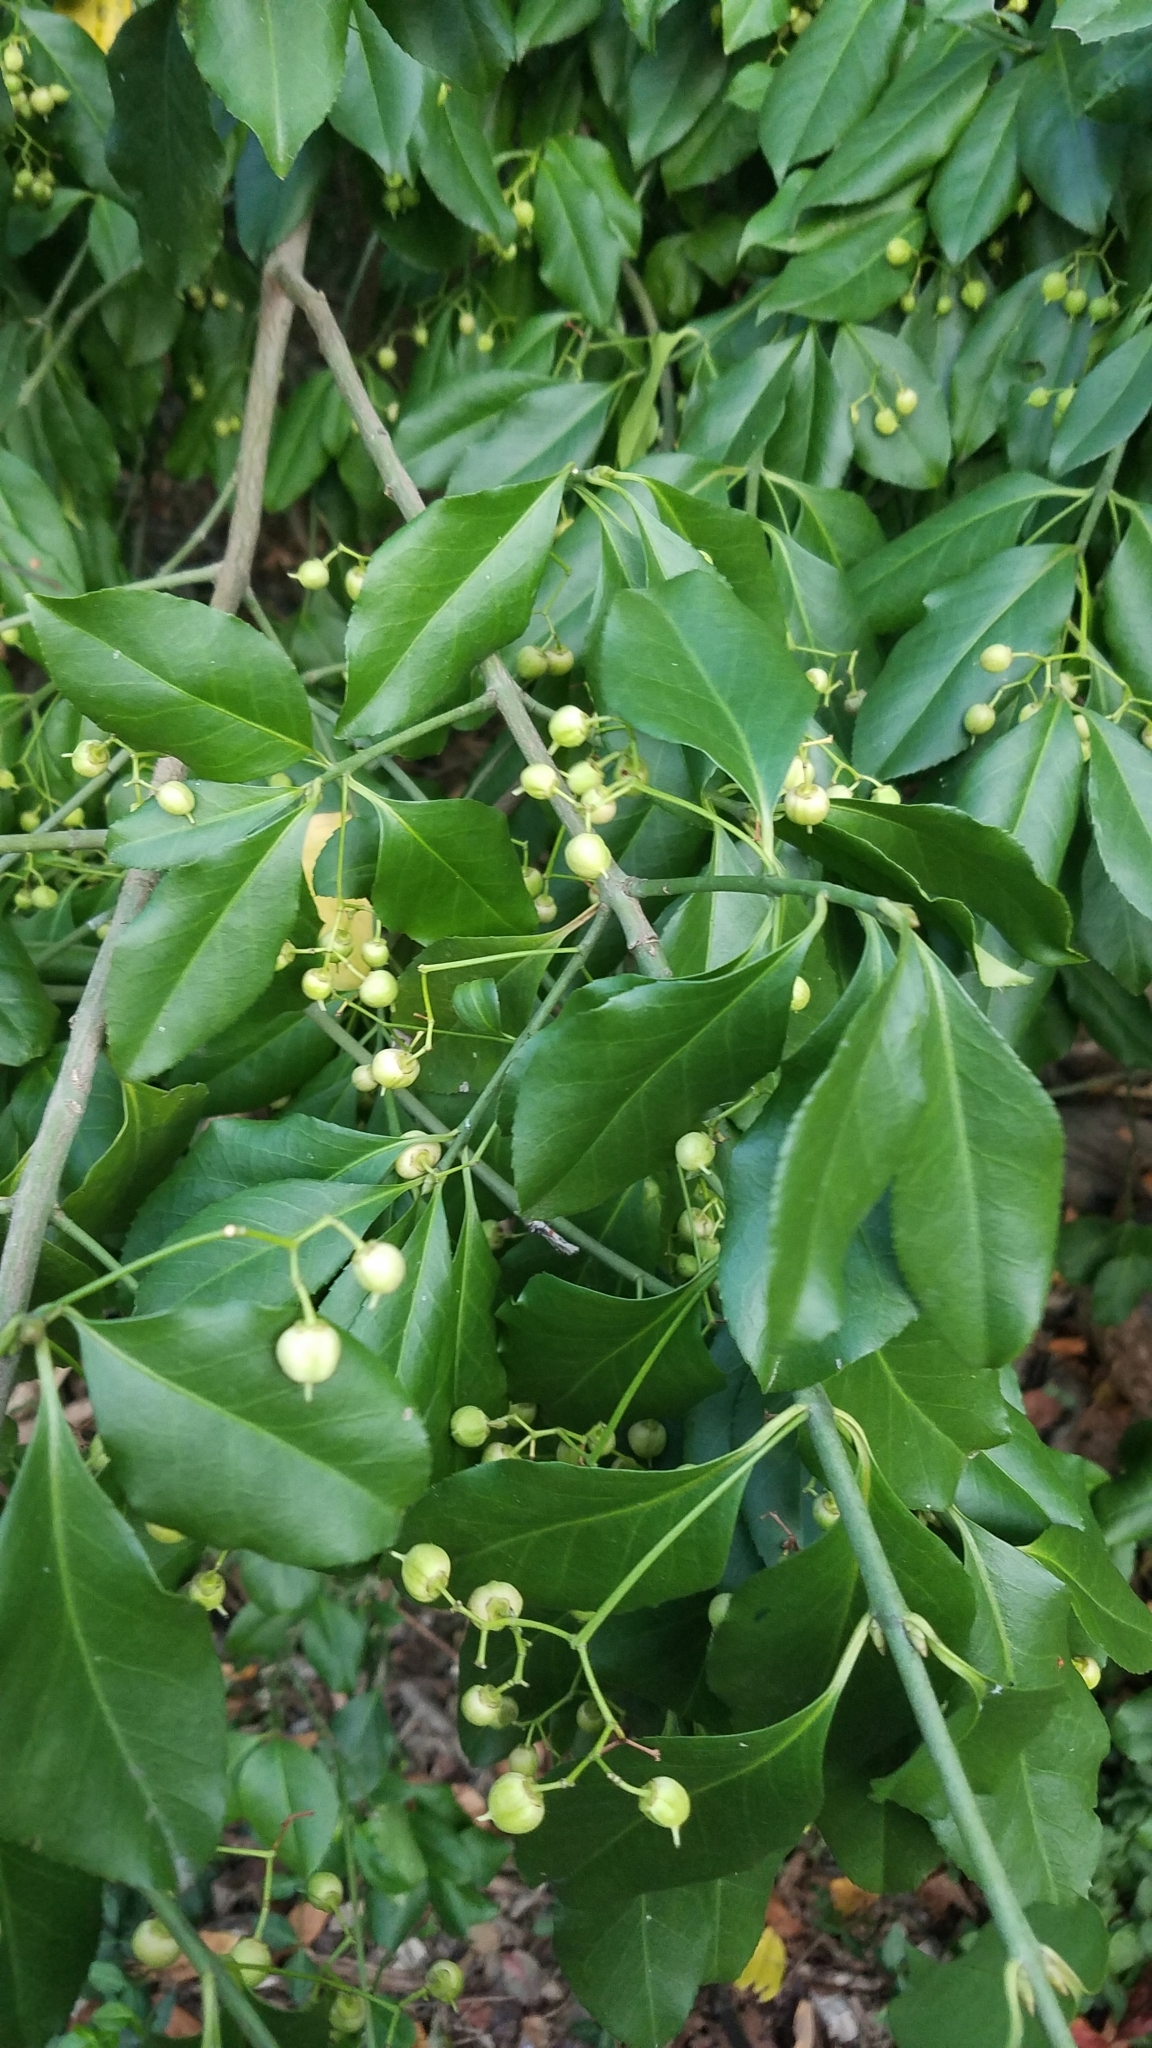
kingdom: Plantae
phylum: Tracheophyta
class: Magnoliopsida
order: Celastrales
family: Celastraceae
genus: Euonymus
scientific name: Euonymus fortunei
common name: Climbing euonymus
